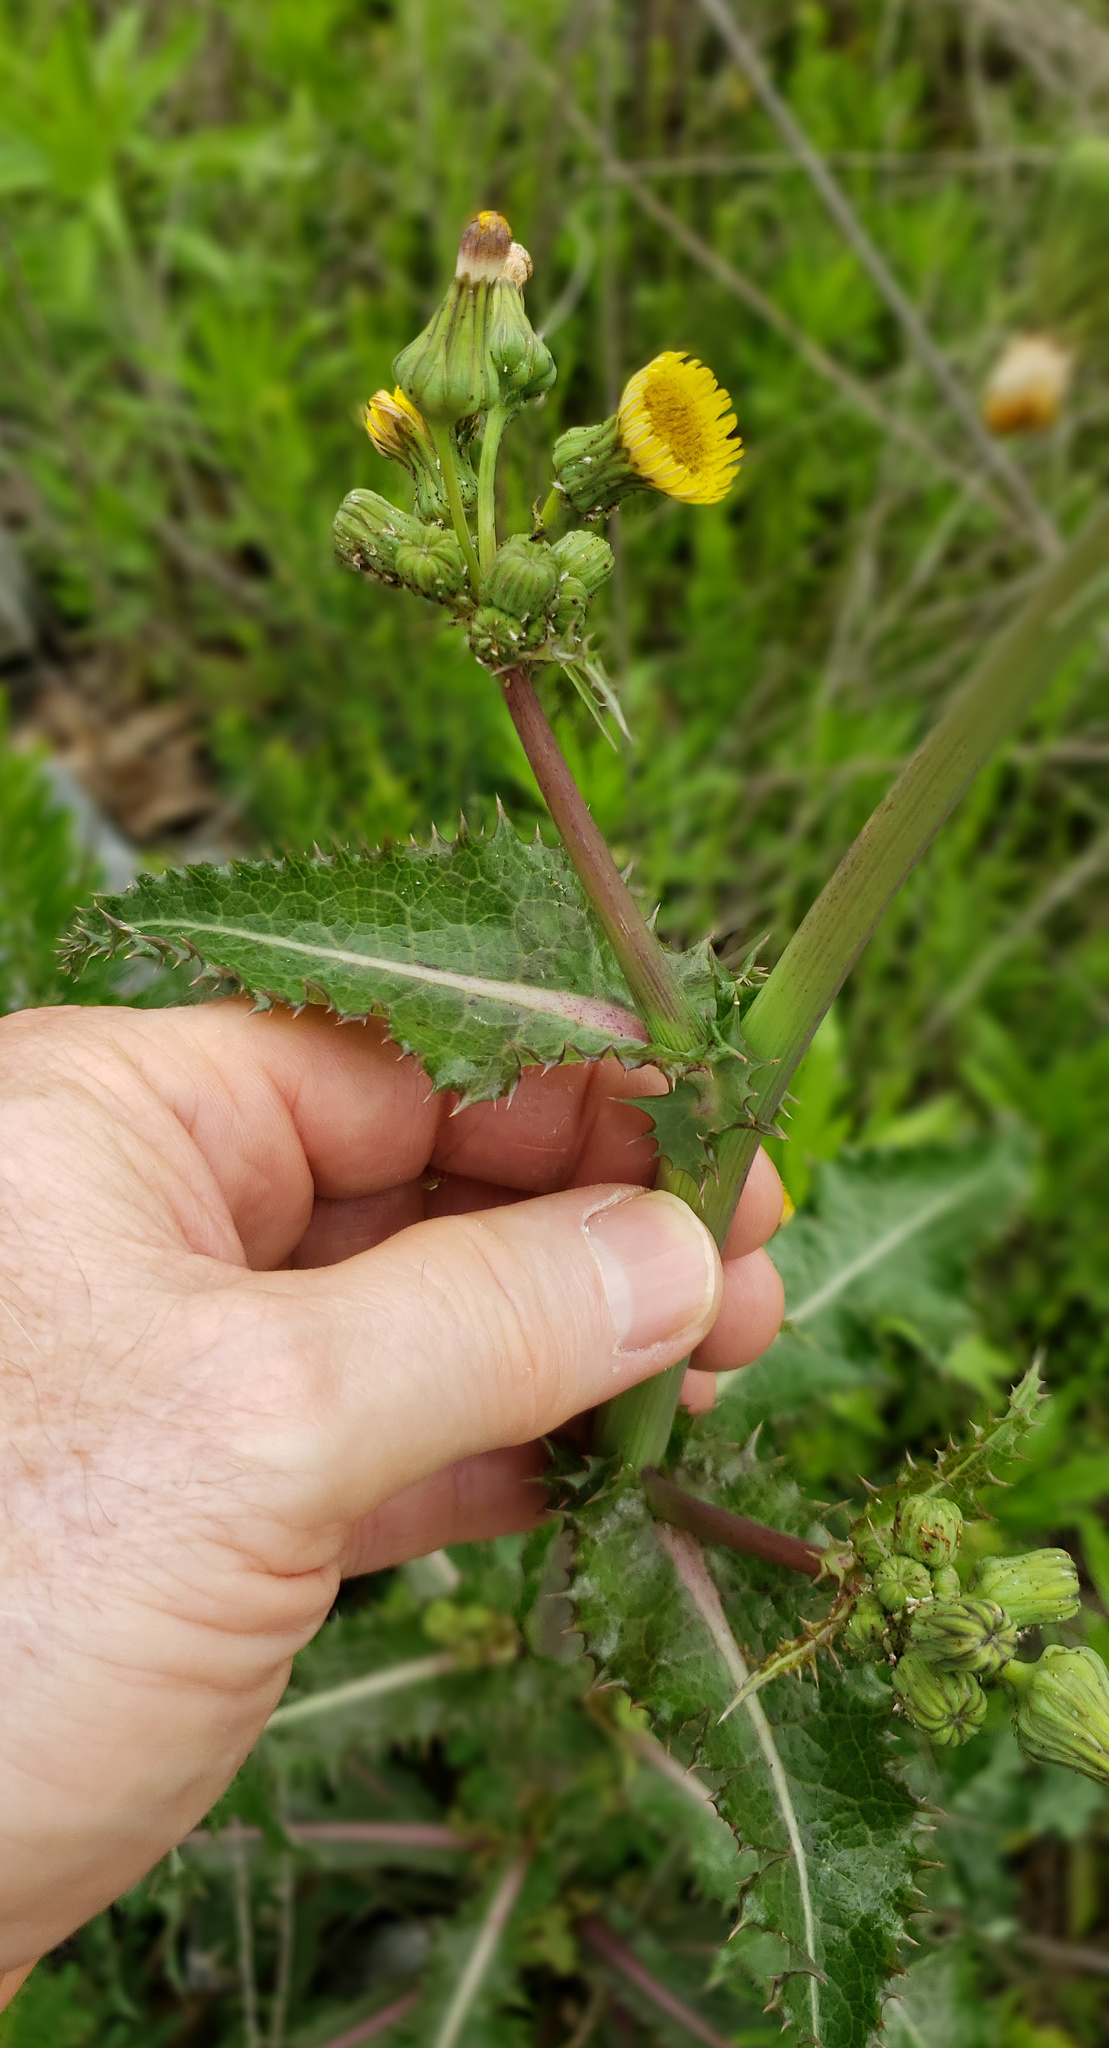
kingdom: Plantae
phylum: Tracheophyta
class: Magnoliopsida
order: Asterales
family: Asteraceae
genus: Sonchus
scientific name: Sonchus asper
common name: Prickly sow-thistle
